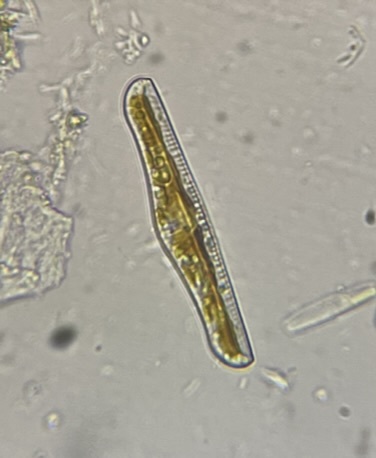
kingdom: Chromista
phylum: Ochrophyta
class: Bacillariophyceae
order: Rhopalodiales
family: Rhopalodiaceae
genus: Epithemia
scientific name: Epithemia gibba
